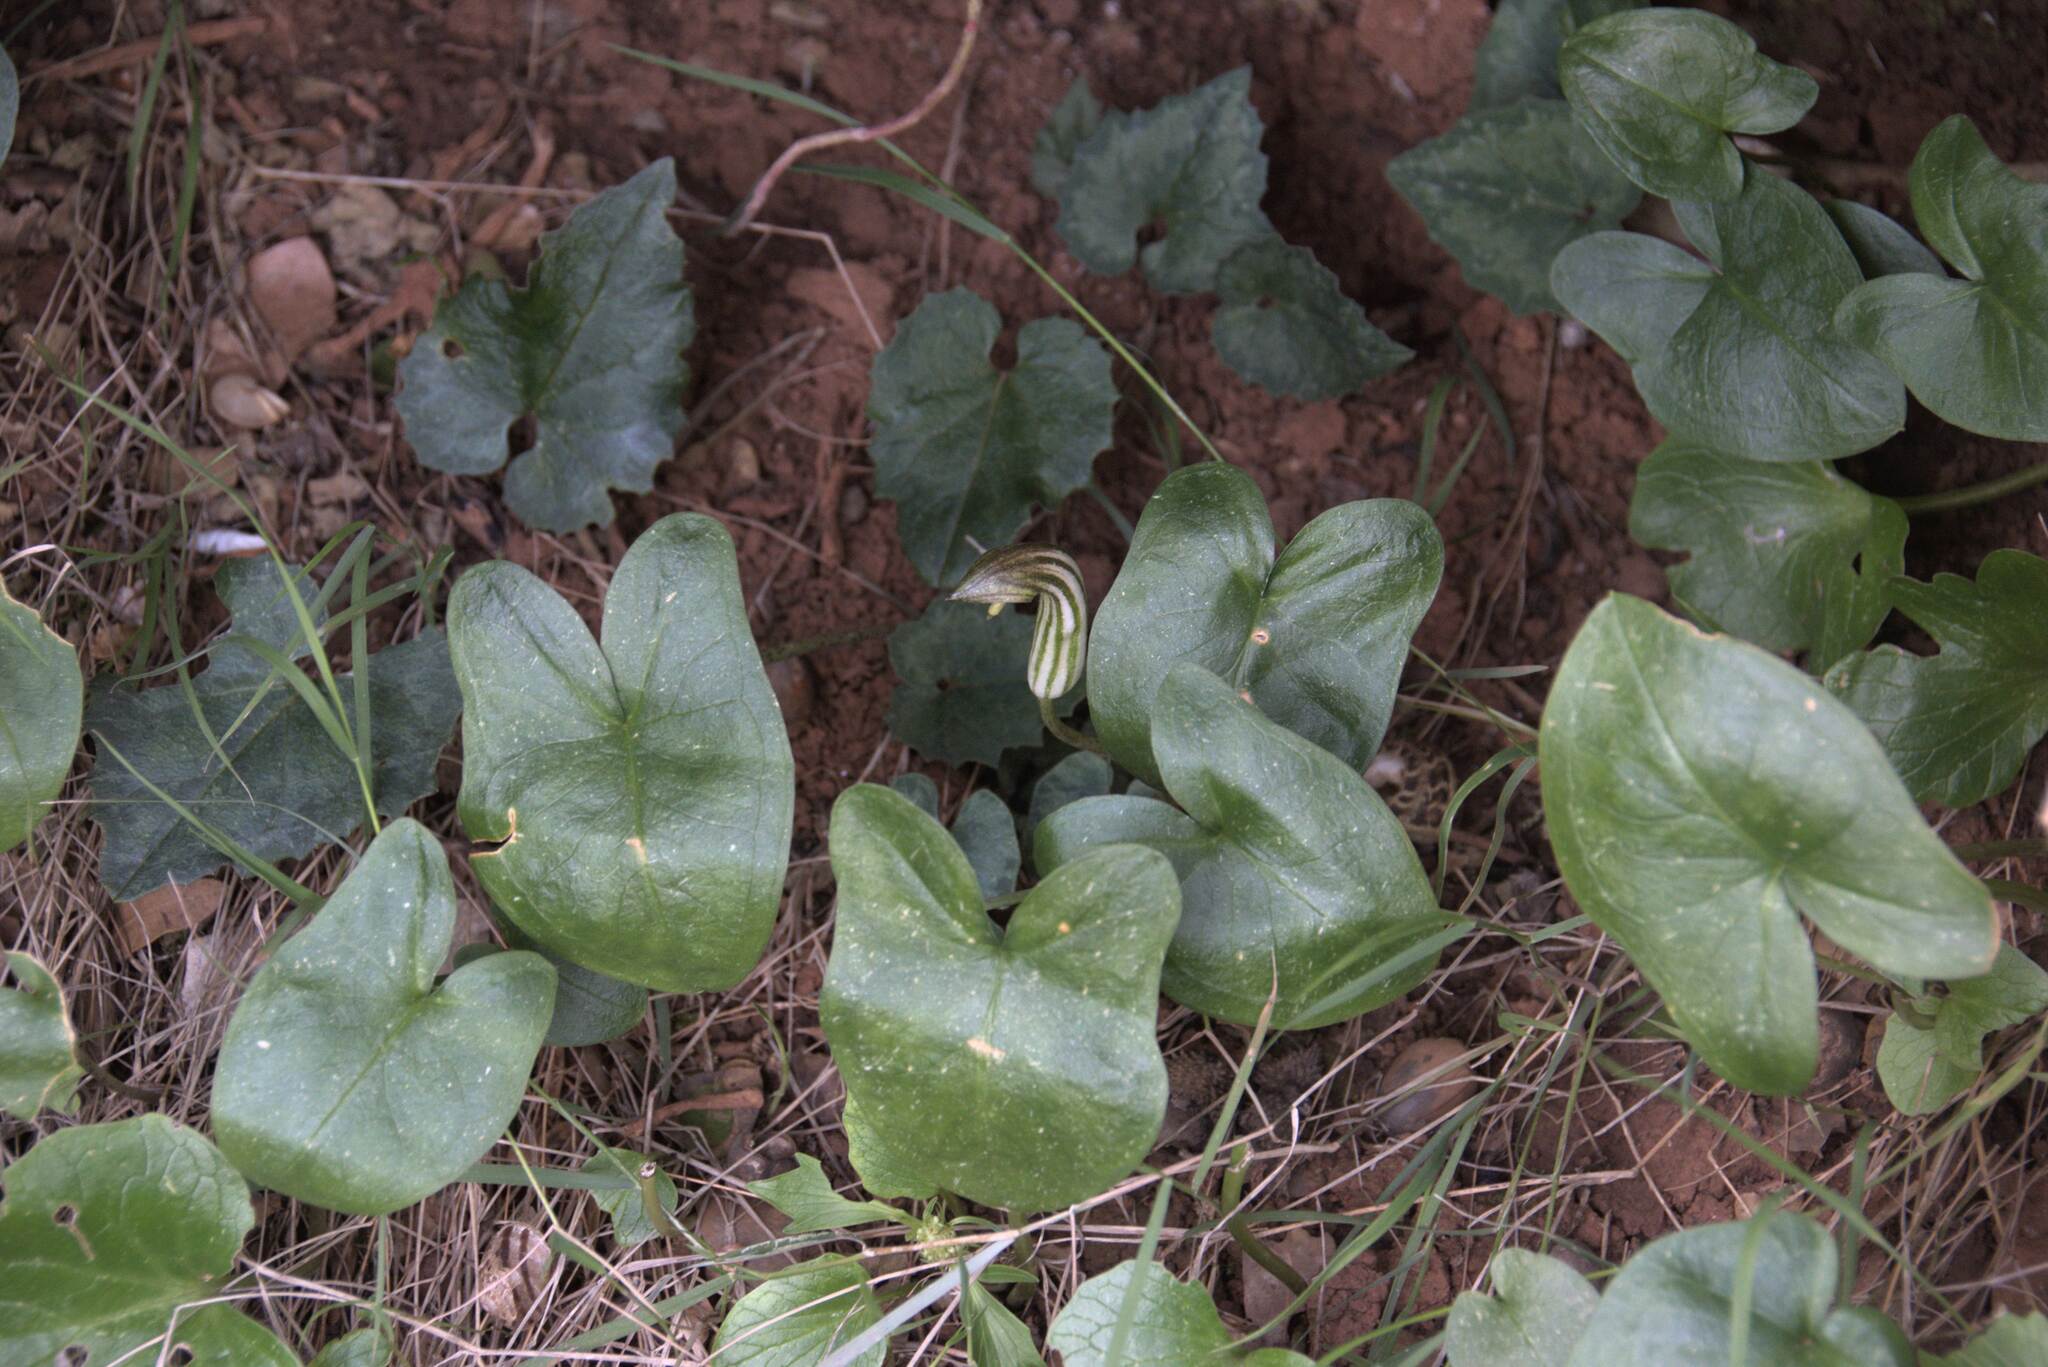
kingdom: Plantae
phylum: Tracheophyta
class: Liliopsida
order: Alismatales
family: Araceae
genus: Arisarum
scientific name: Arisarum vulgare
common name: Common arisarum
